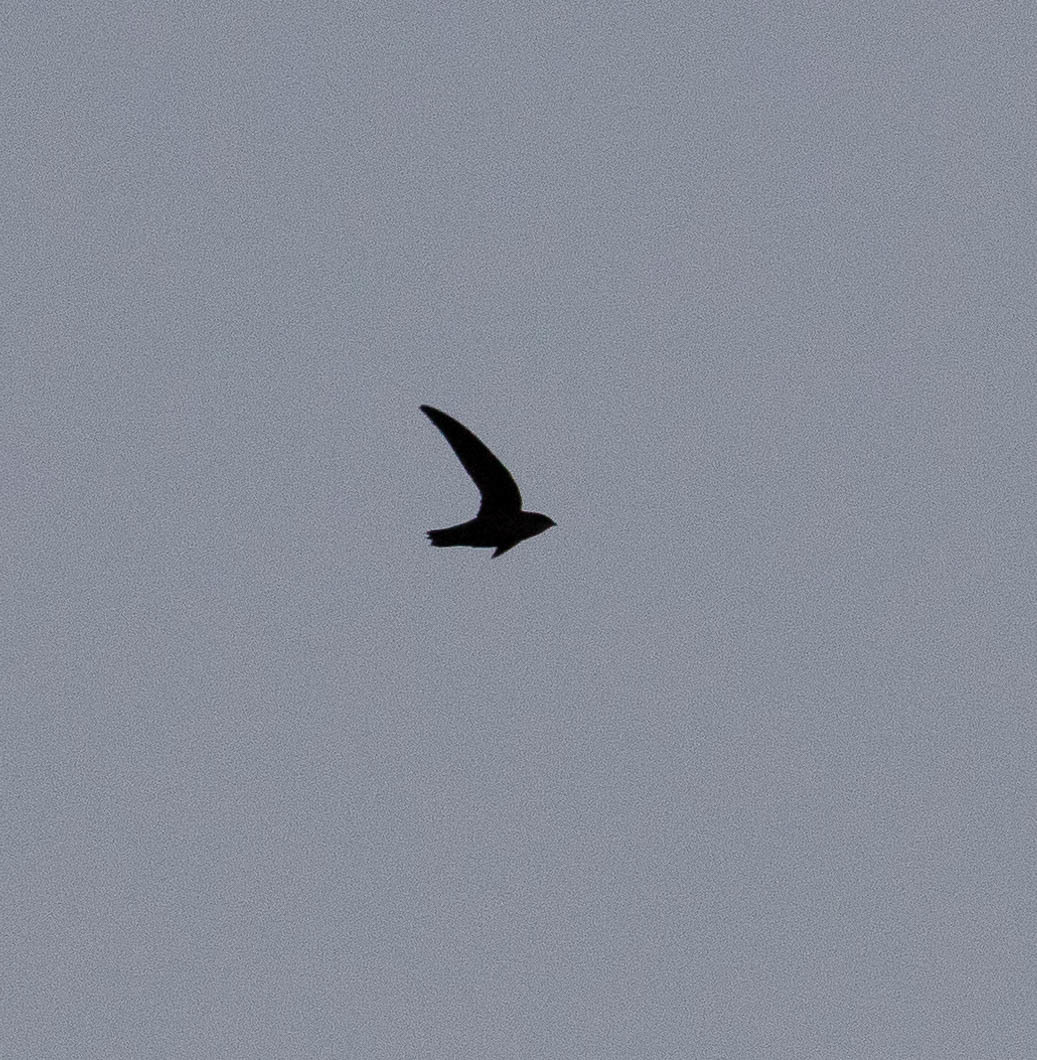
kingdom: Animalia
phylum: Chordata
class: Aves
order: Apodiformes
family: Apodidae
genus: Chaetura
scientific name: Chaetura pelagica
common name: Chimney swift
